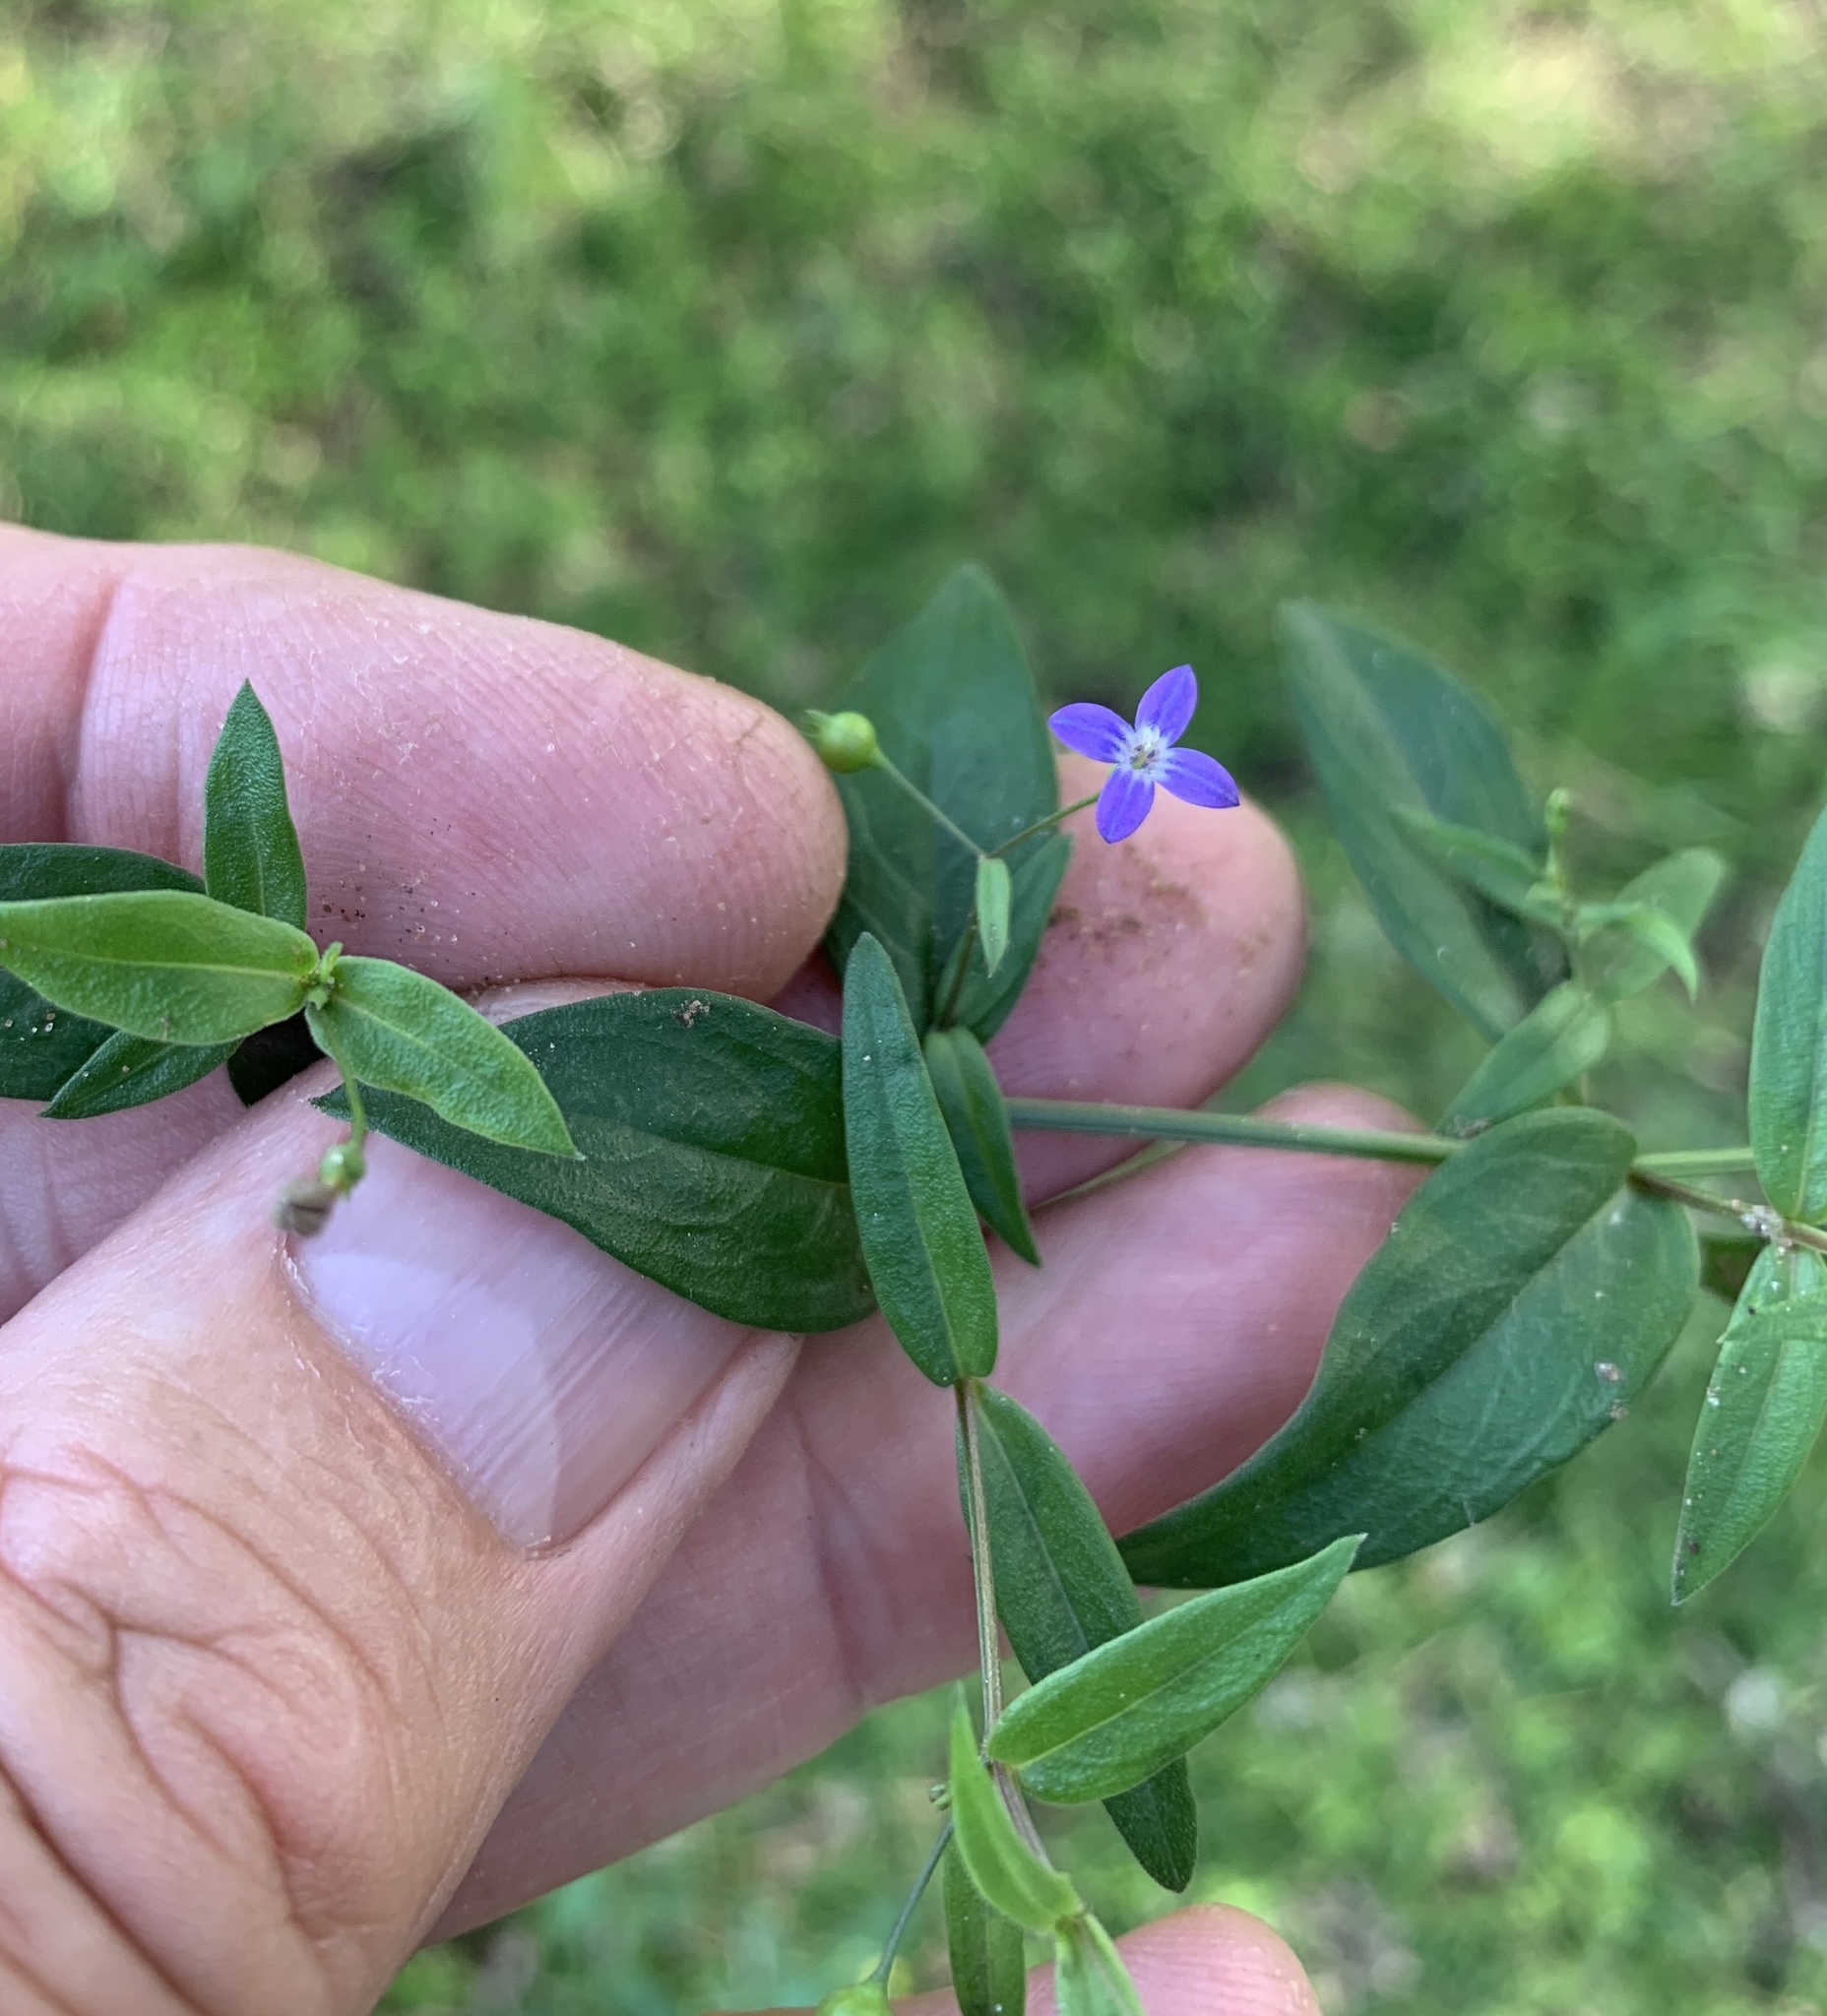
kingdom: Plantae
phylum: Tracheophyta
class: Magnoliopsida
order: Gentianales
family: Rubiaceae
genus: Oldenlandia
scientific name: Oldenlandia affinis
